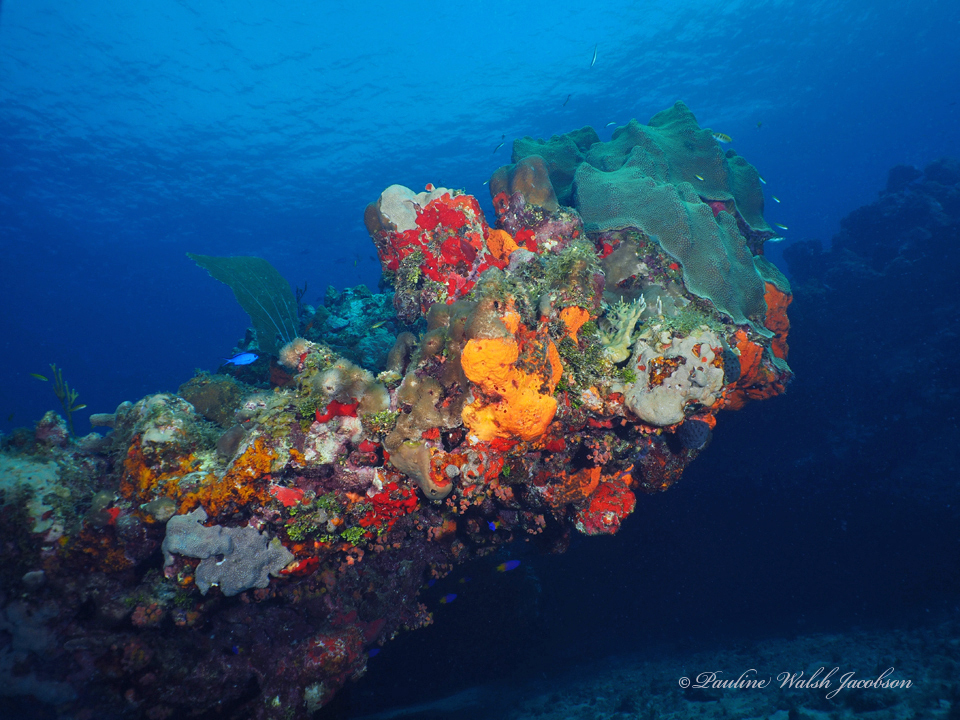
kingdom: Animalia
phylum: Cnidaria
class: Anthozoa
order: Scleractinia
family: Merulinidae
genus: Orbicella
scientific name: Orbicella faveolata
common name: Mountainous star coral
